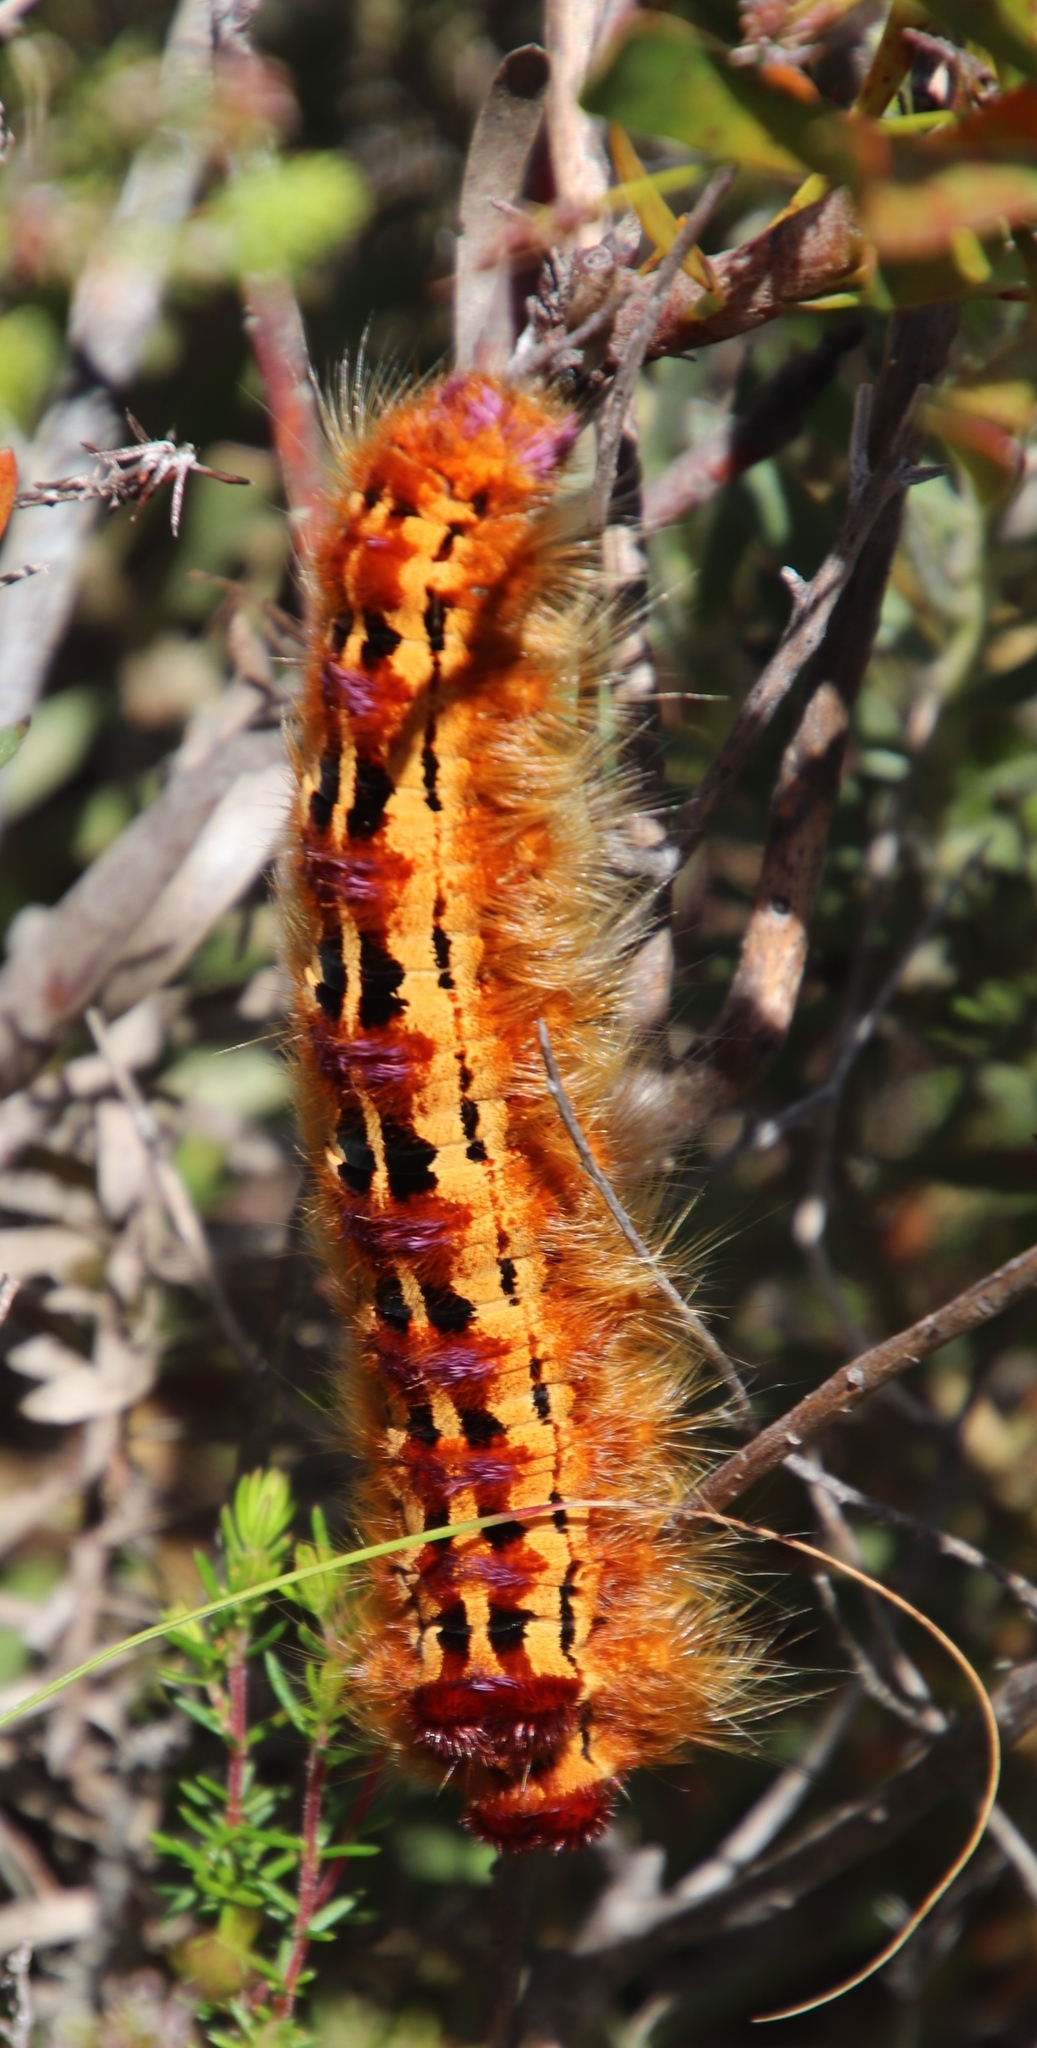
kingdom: Animalia
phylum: Arthropoda
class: Insecta
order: Lepidoptera
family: Lasiocampidae
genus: Eutricha
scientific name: Eutricha bifascia
